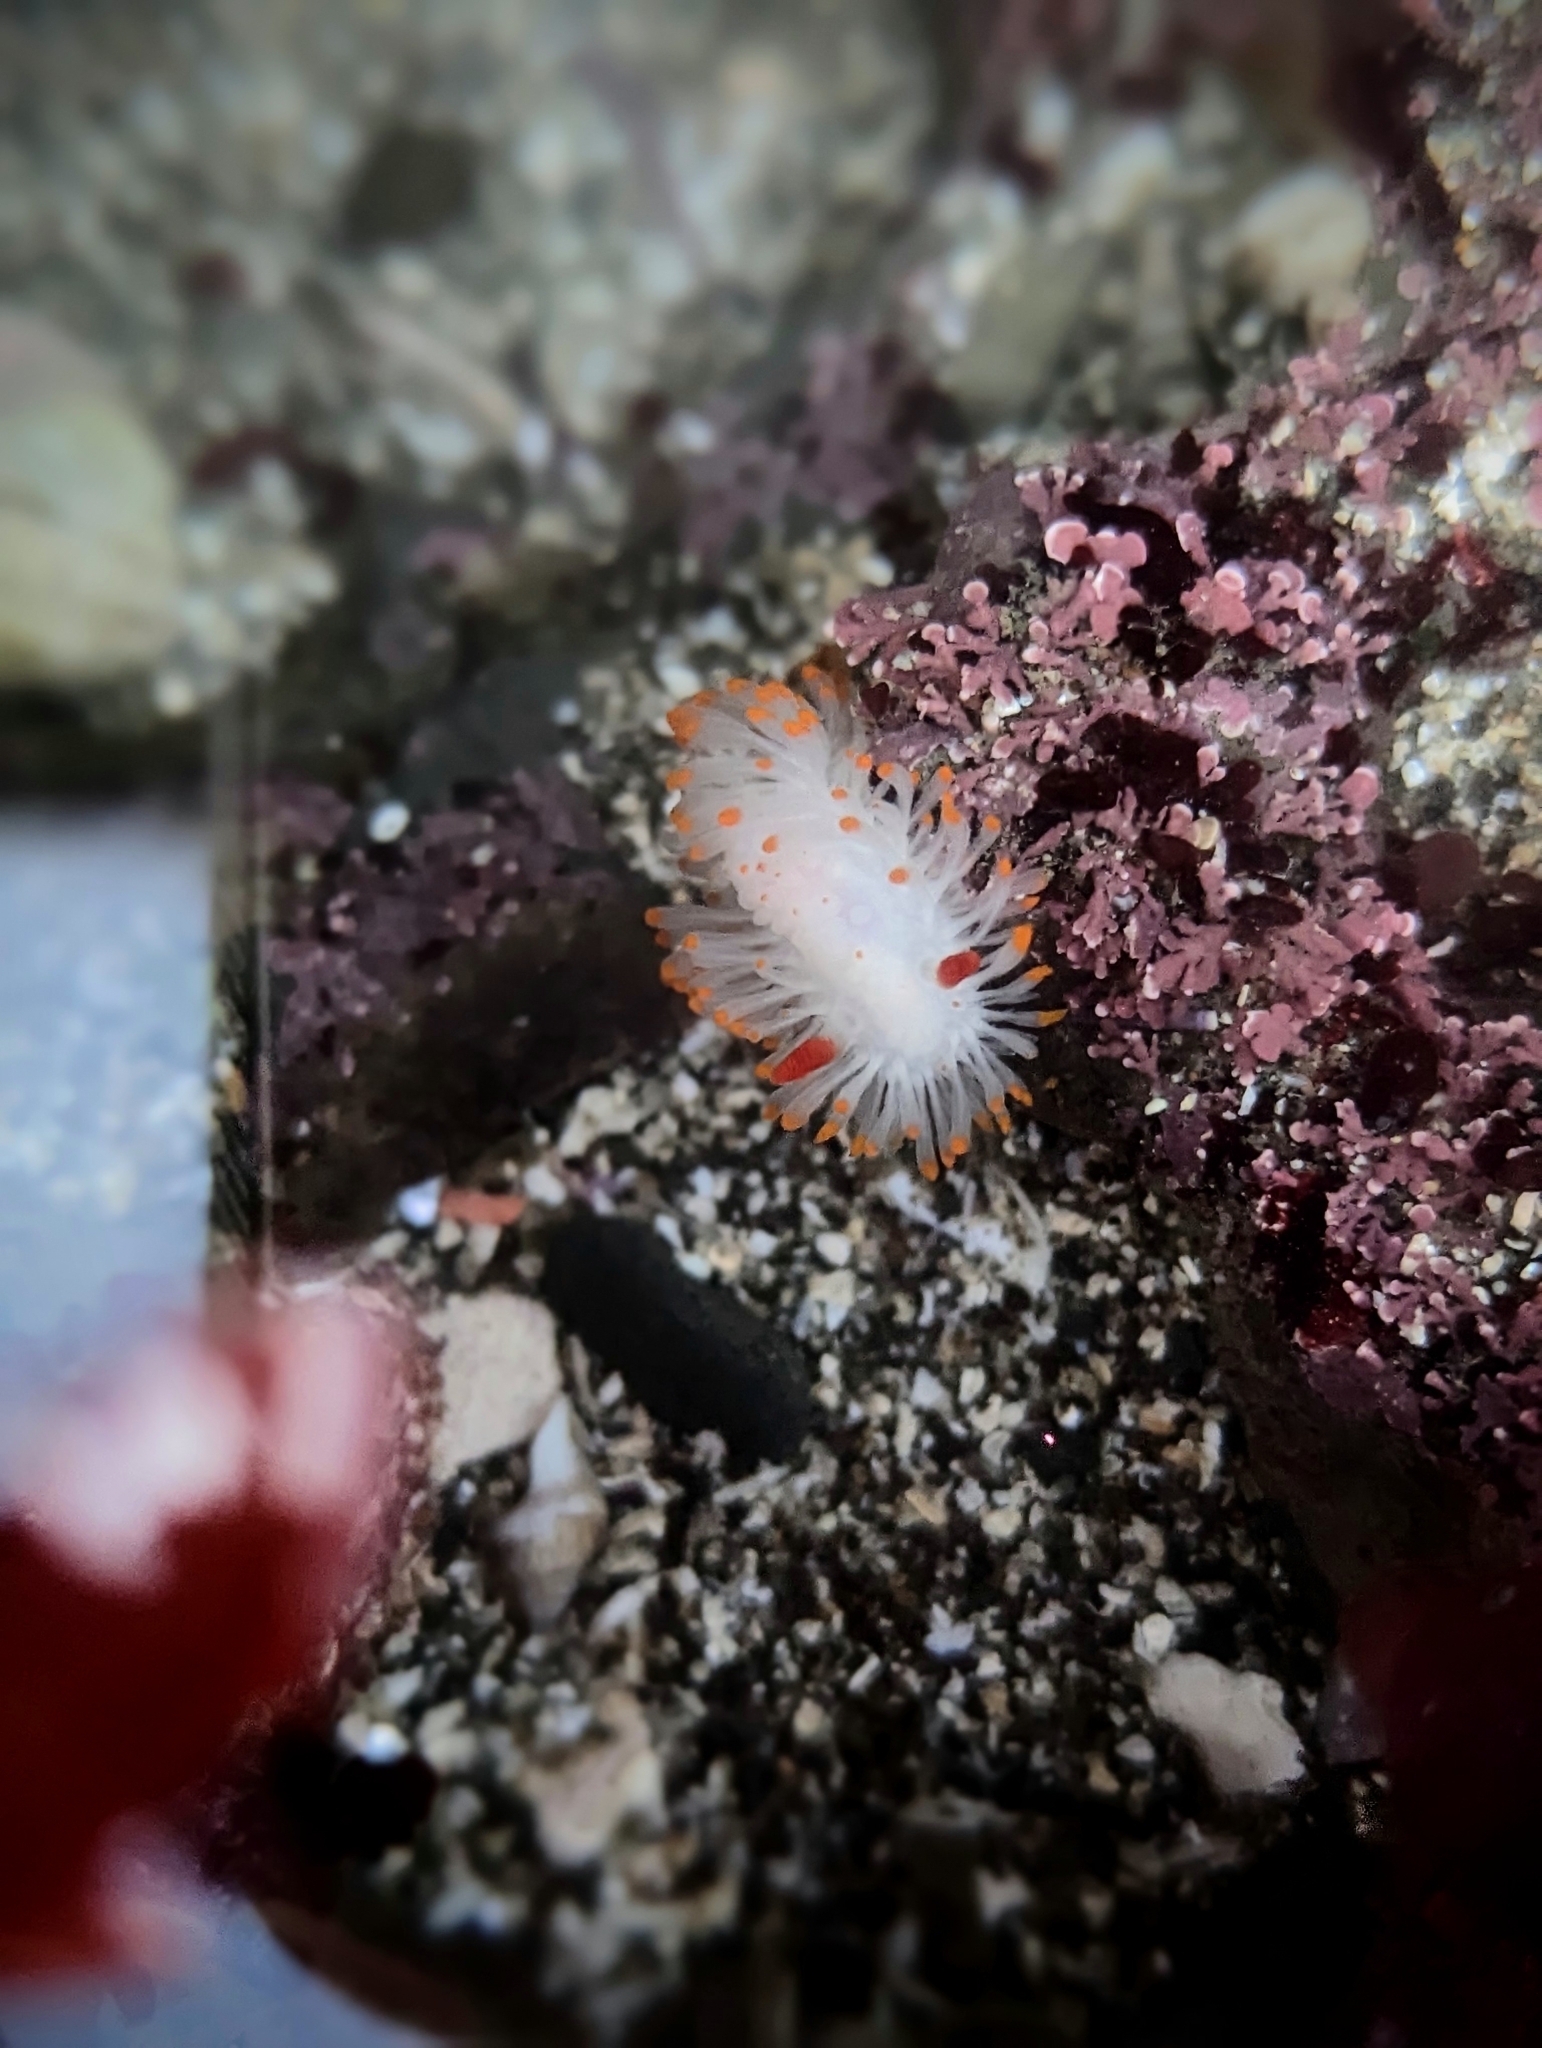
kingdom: Animalia
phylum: Mollusca
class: Gastropoda
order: Nudibranchia
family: Polyceridae
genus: Limacia
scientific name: Limacia cockerelli
